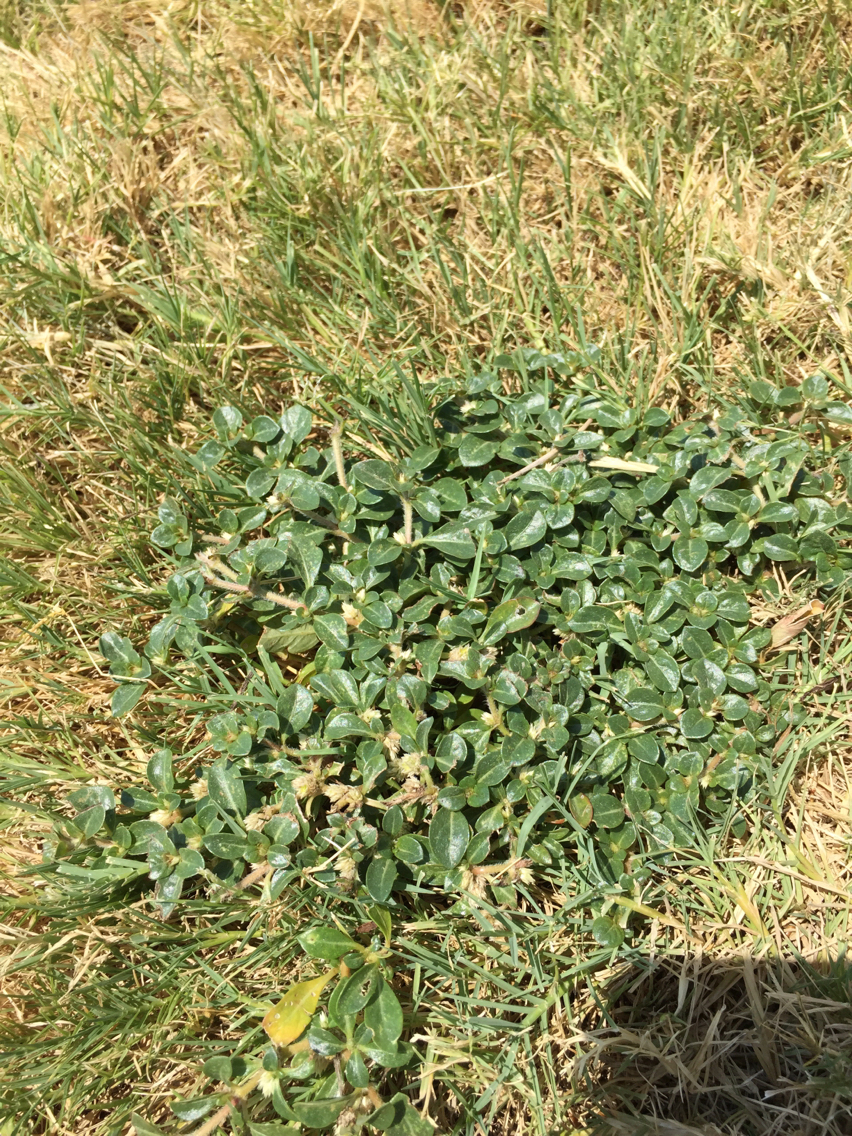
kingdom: Plantae
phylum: Tracheophyta
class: Magnoliopsida
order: Caryophyllales
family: Amaranthaceae
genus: Alternanthera
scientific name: Alternanthera caracasana
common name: Washerwoman
